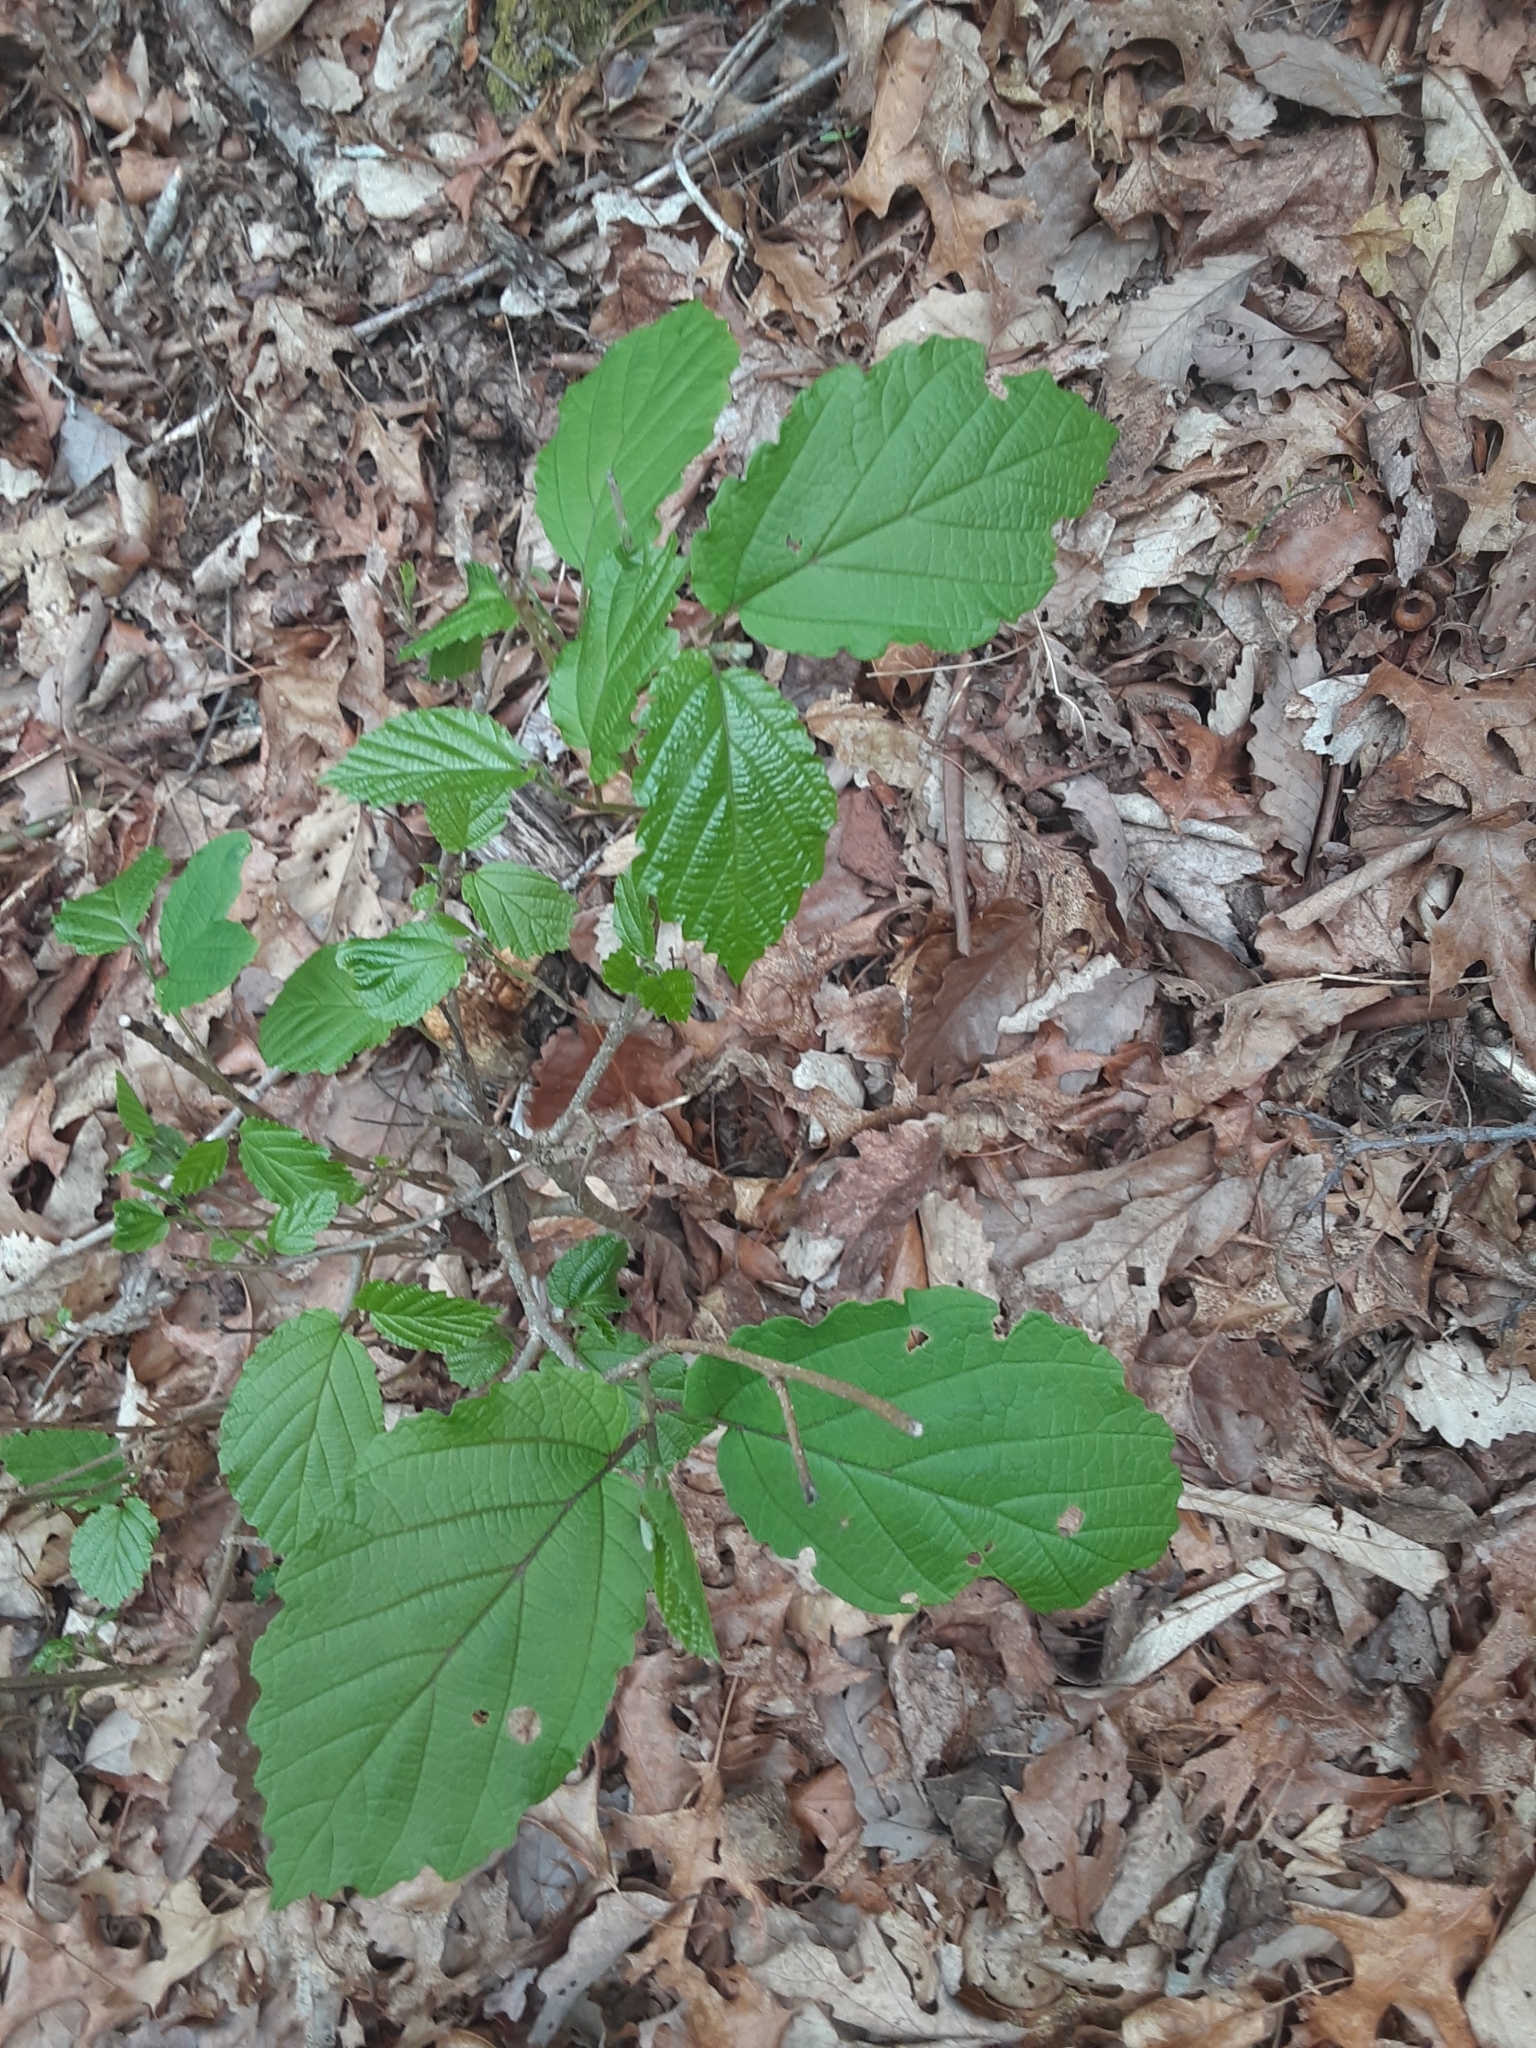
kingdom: Plantae
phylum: Tracheophyta
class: Magnoliopsida
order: Saxifragales
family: Hamamelidaceae
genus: Hamamelis
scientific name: Hamamelis virginiana
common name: Witch-hazel
